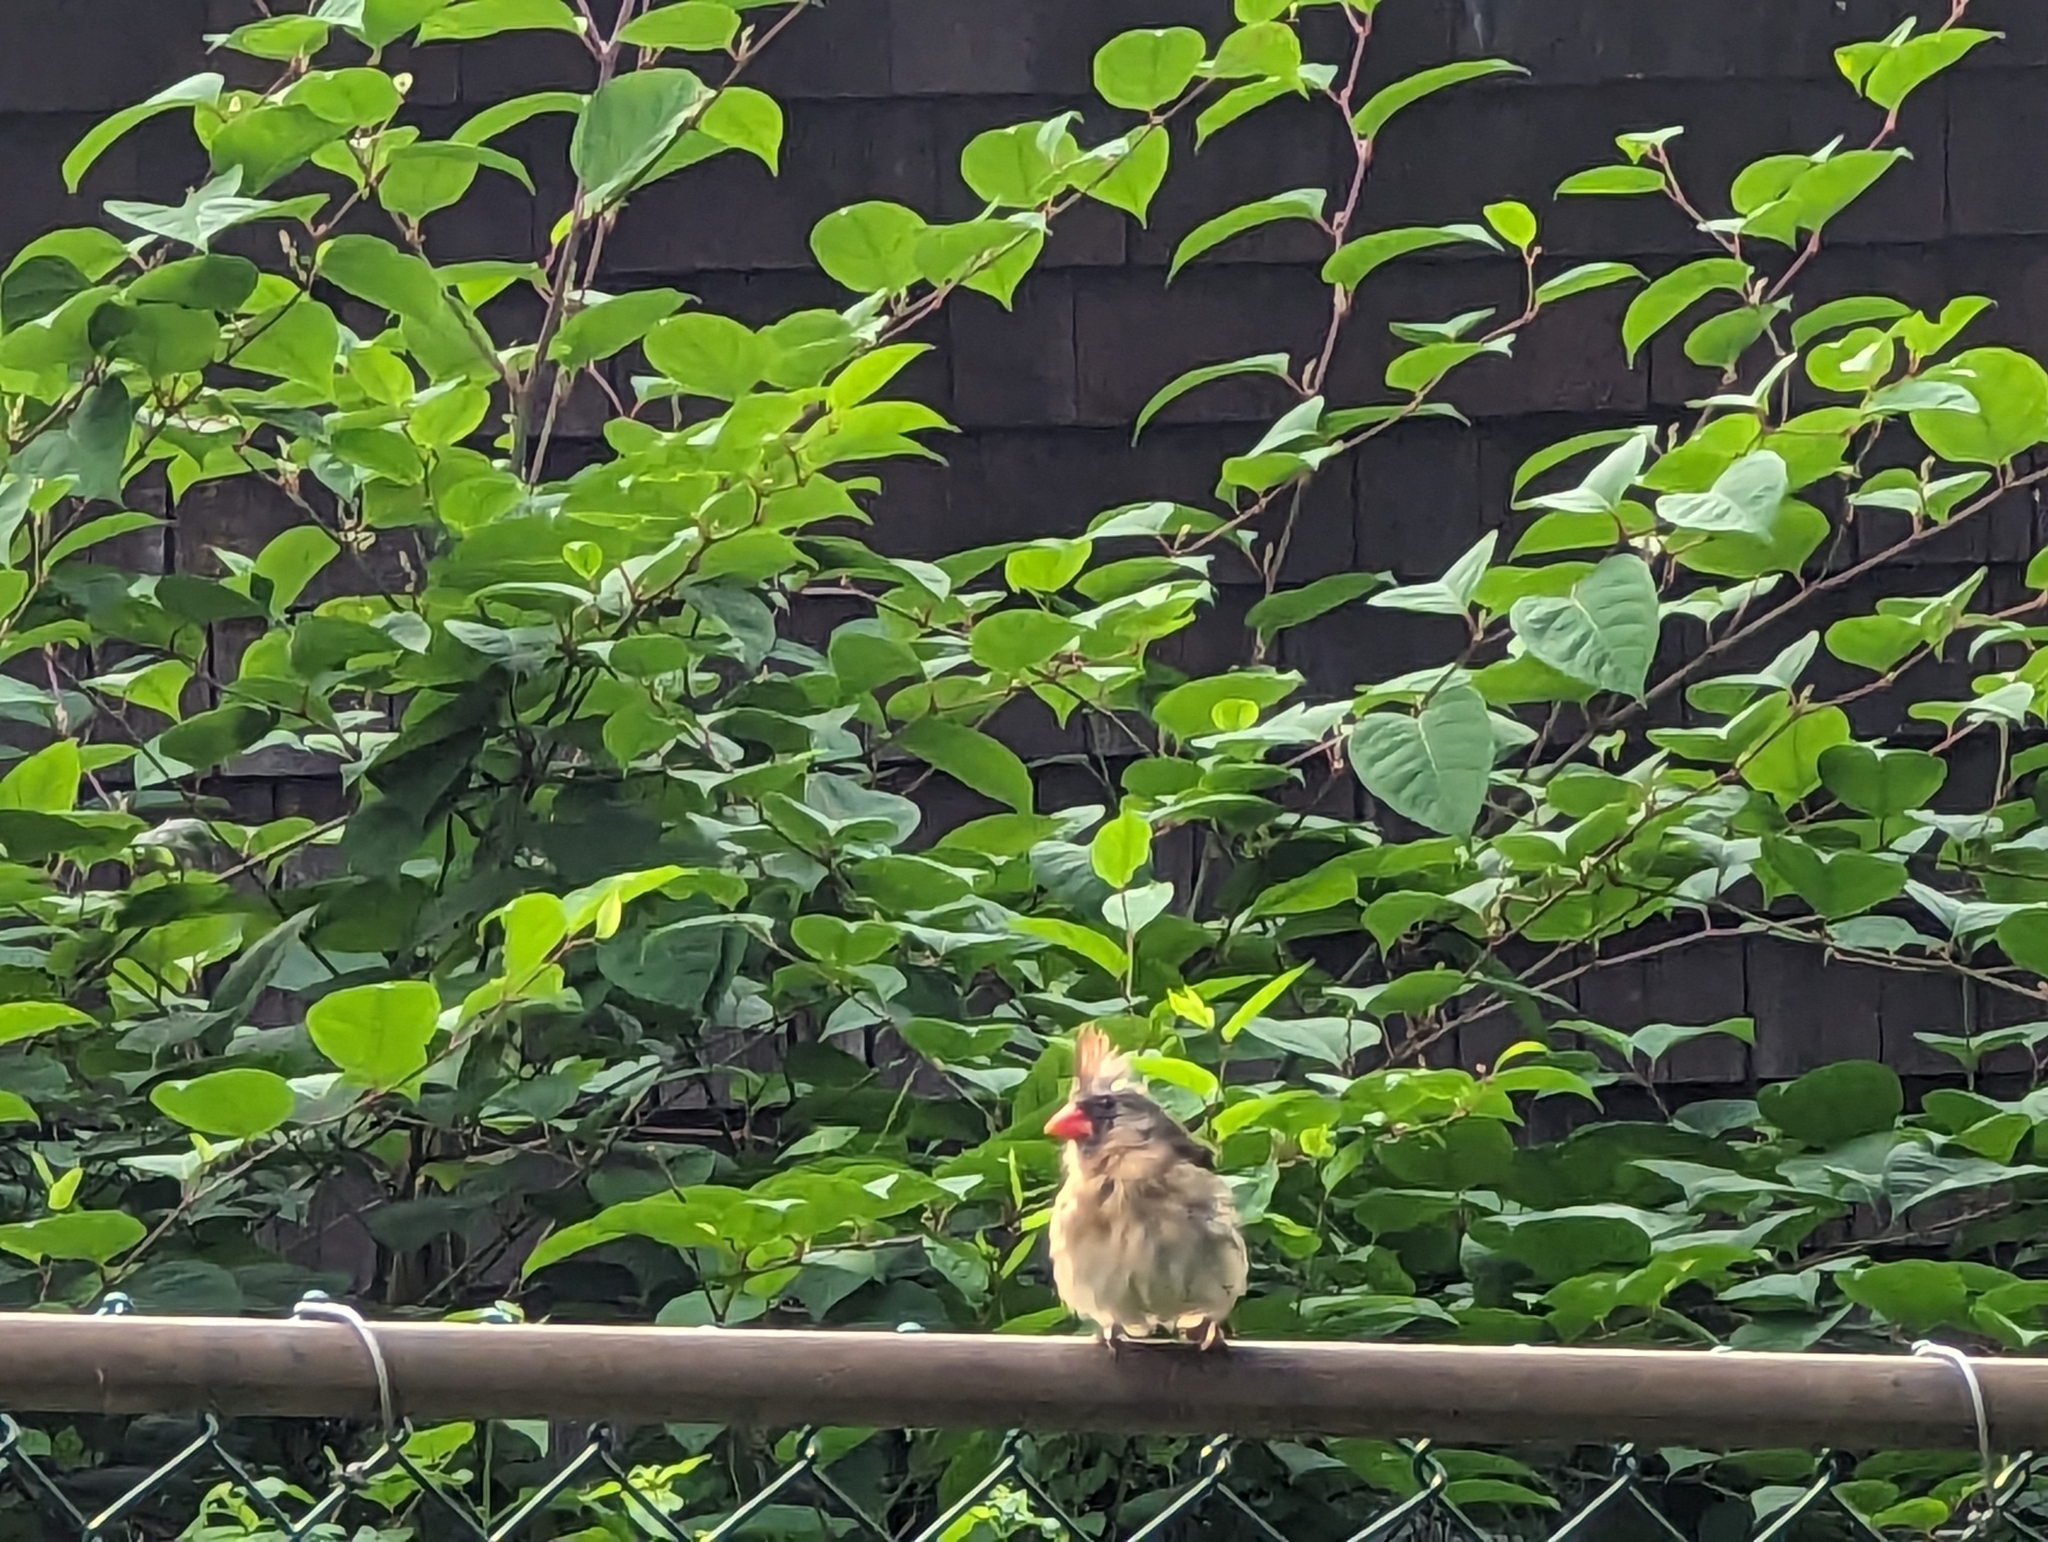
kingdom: Animalia
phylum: Chordata
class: Aves
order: Passeriformes
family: Cardinalidae
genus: Cardinalis
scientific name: Cardinalis cardinalis
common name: Northern cardinal
